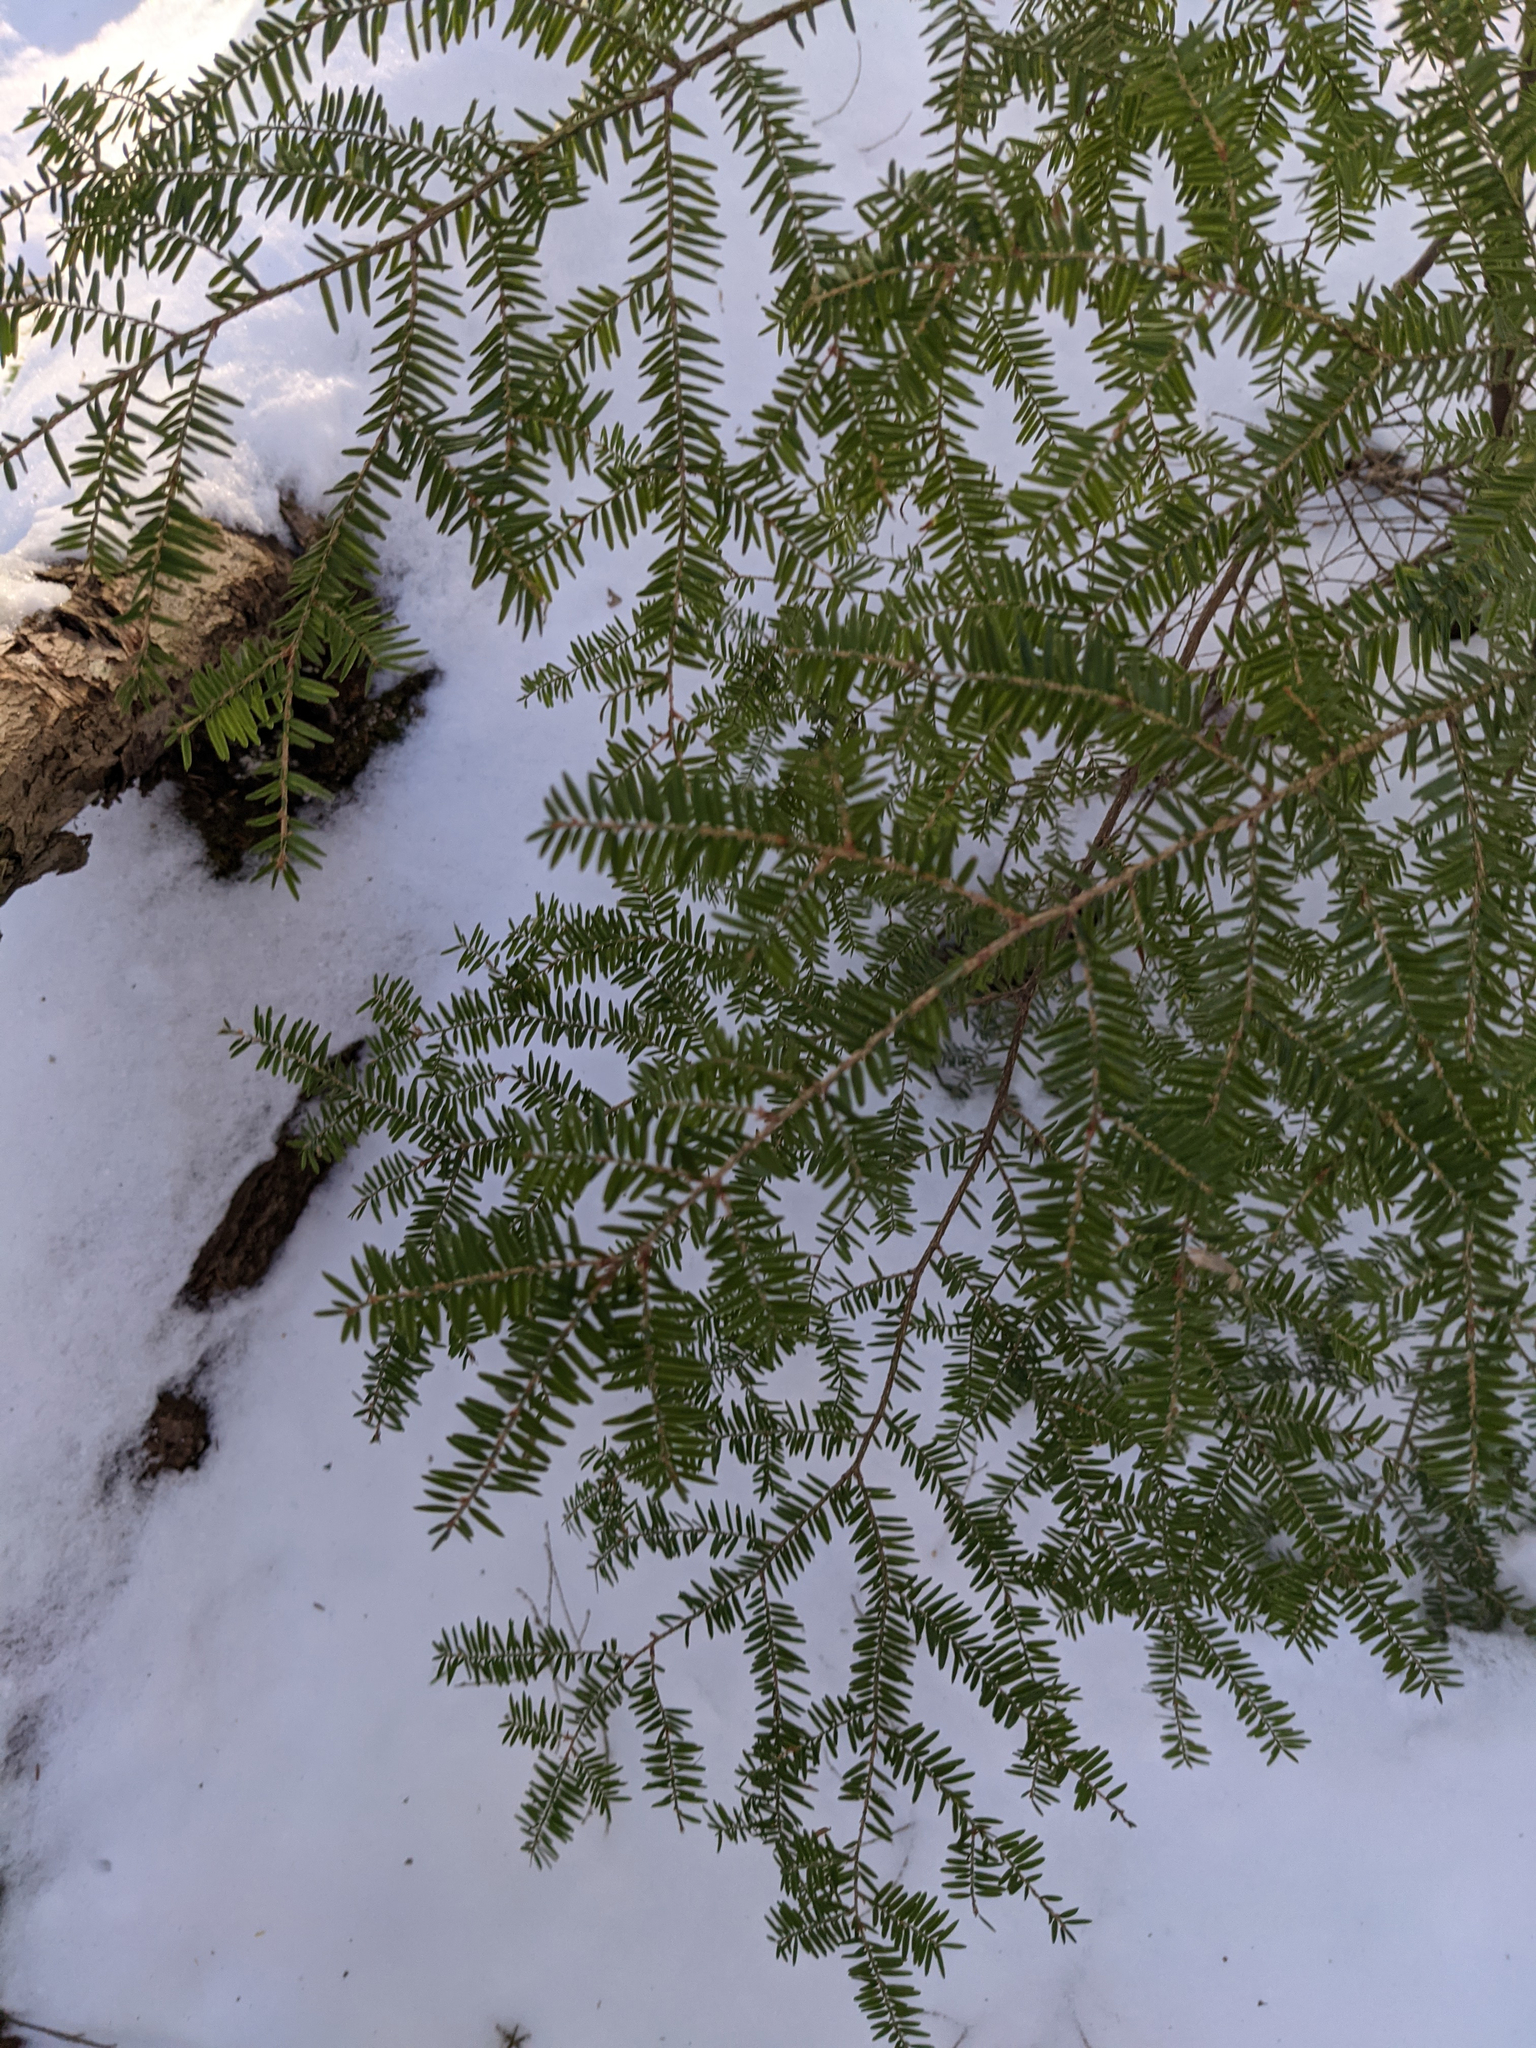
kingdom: Plantae
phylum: Tracheophyta
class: Pinopsida
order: Pinales
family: Pinaceae
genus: Tsuga
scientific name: Tsuga canadensis
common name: Eastern hemlock
